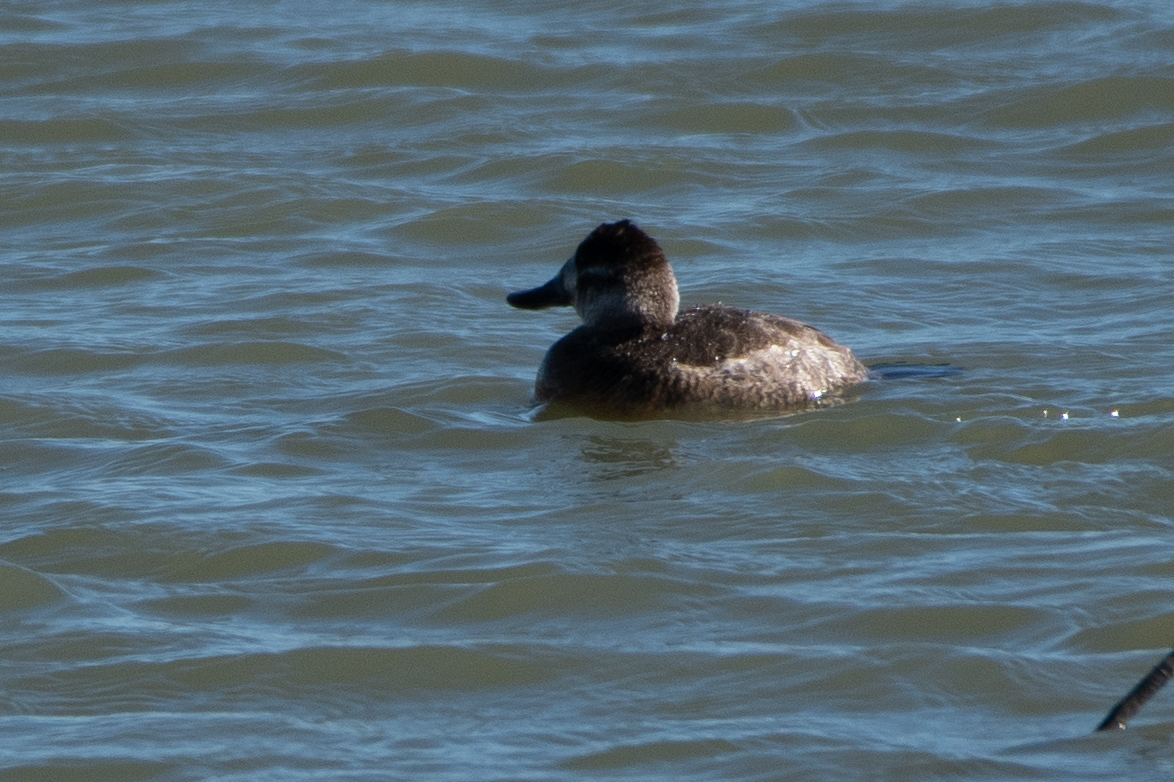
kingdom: Animalia
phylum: Chordata
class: Aves
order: Anseriformes
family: Anatidae
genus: Oxyura
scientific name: Oxyura jamaicensis
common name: Ruddy duck
